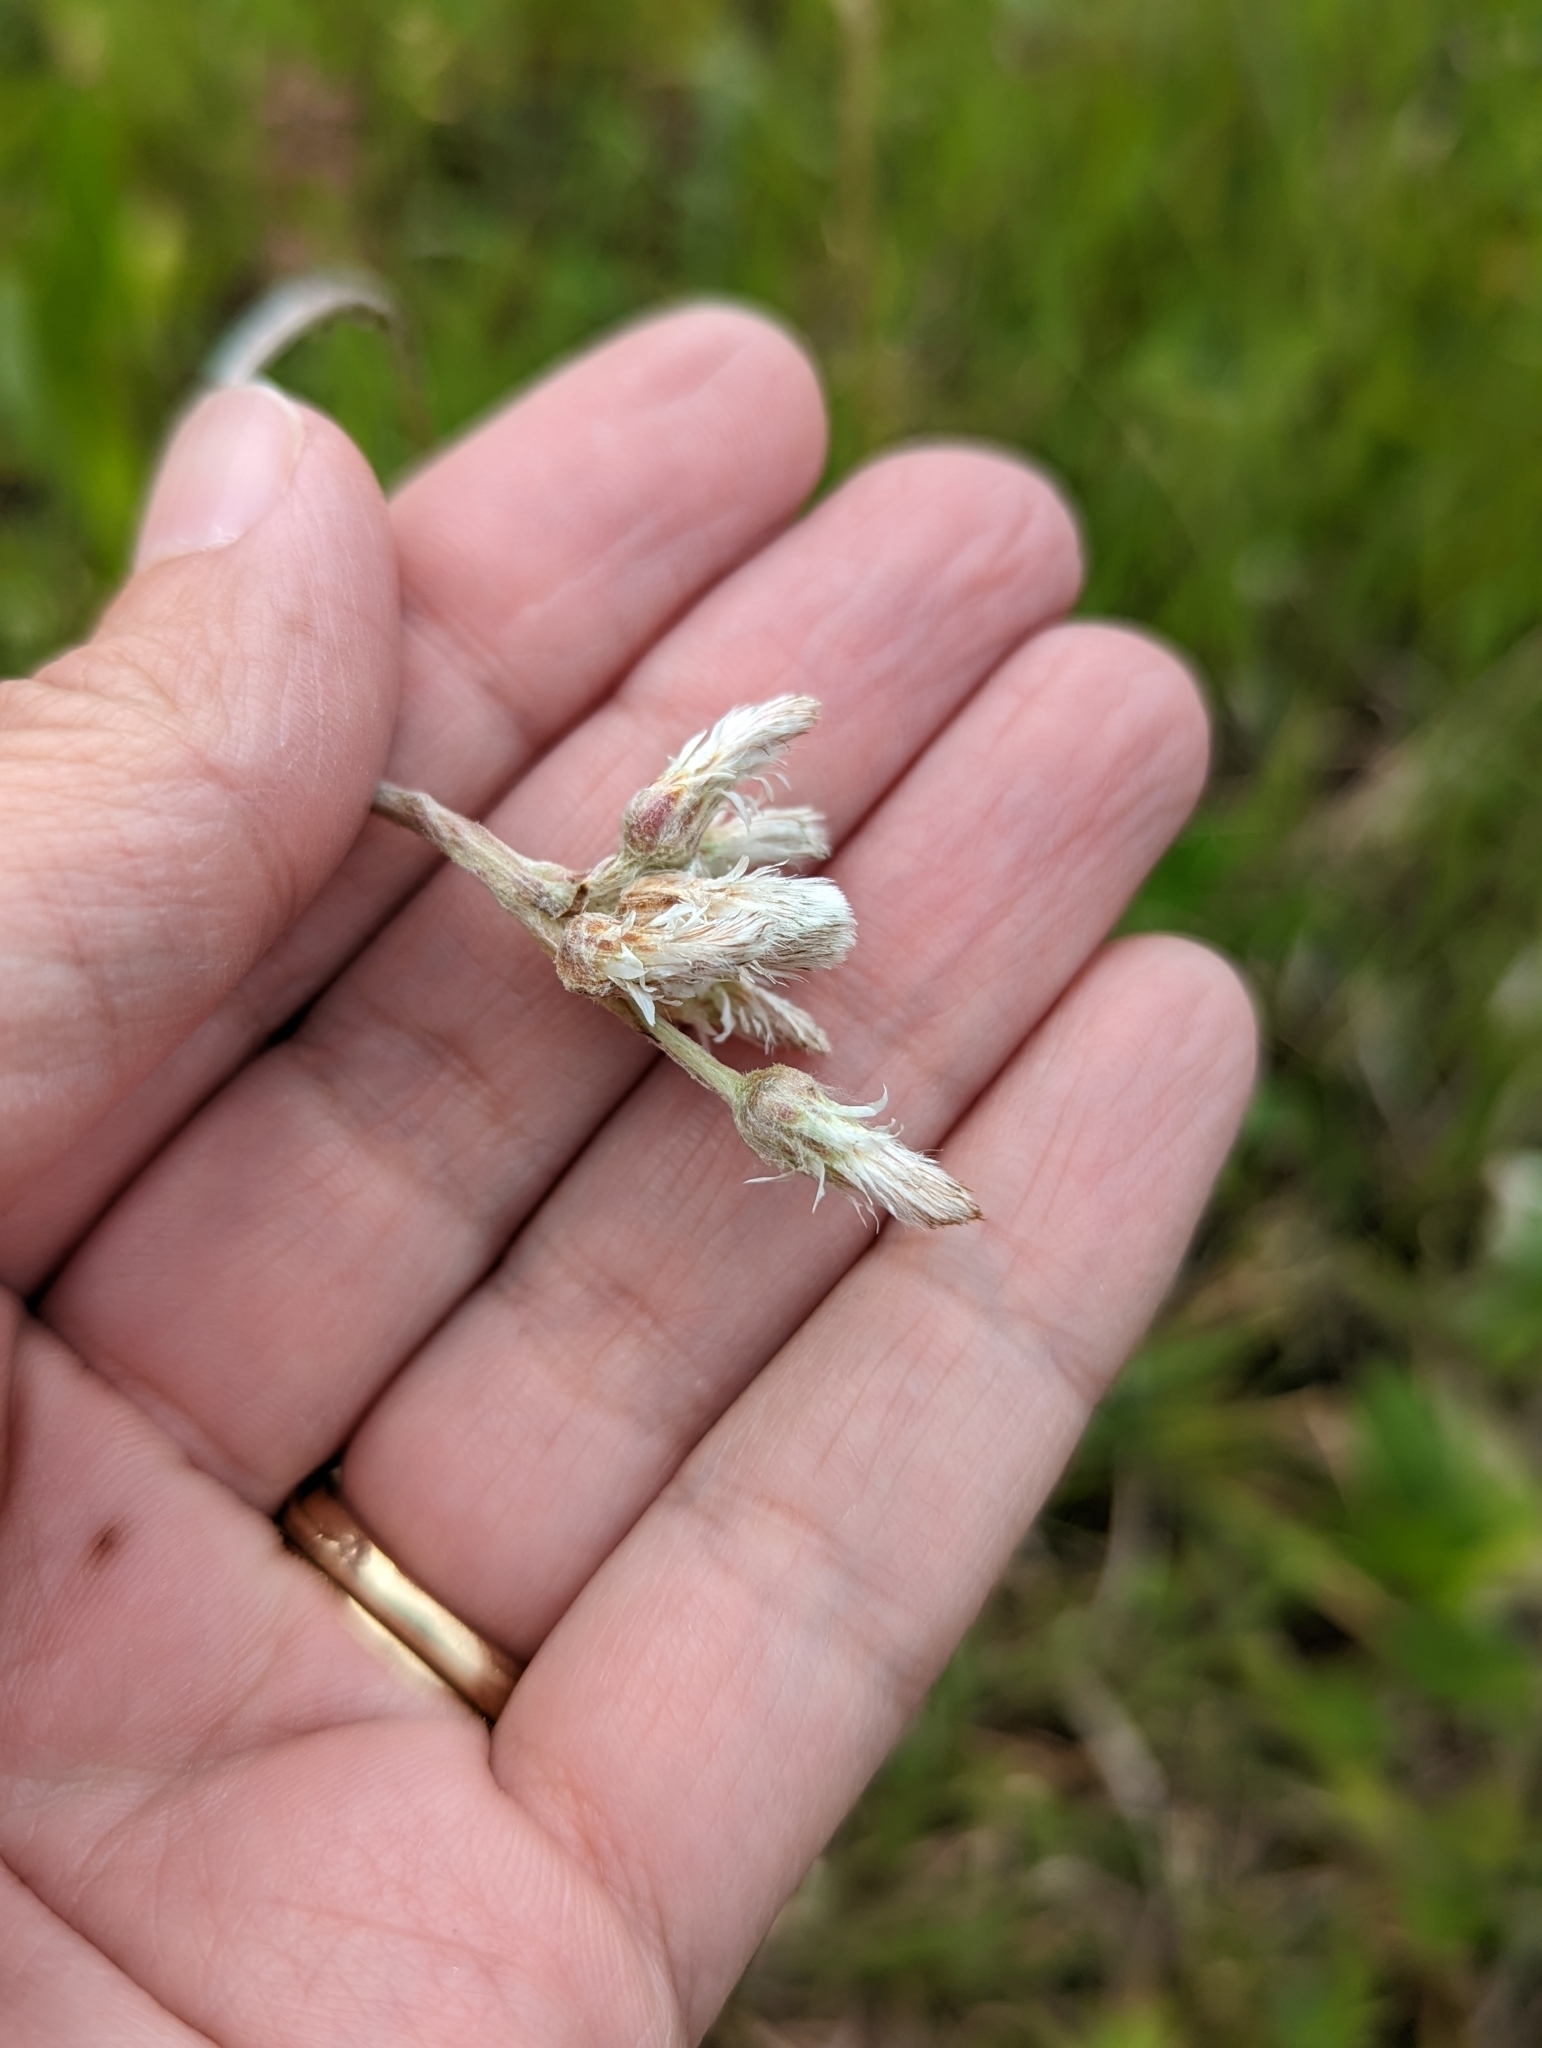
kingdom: Plantae
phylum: Tracheophyta
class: Magnoliopsida
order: Asterales
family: Asteraceae
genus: Antennaria
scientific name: Antennaria parlinii
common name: Parlin's pussytoes
